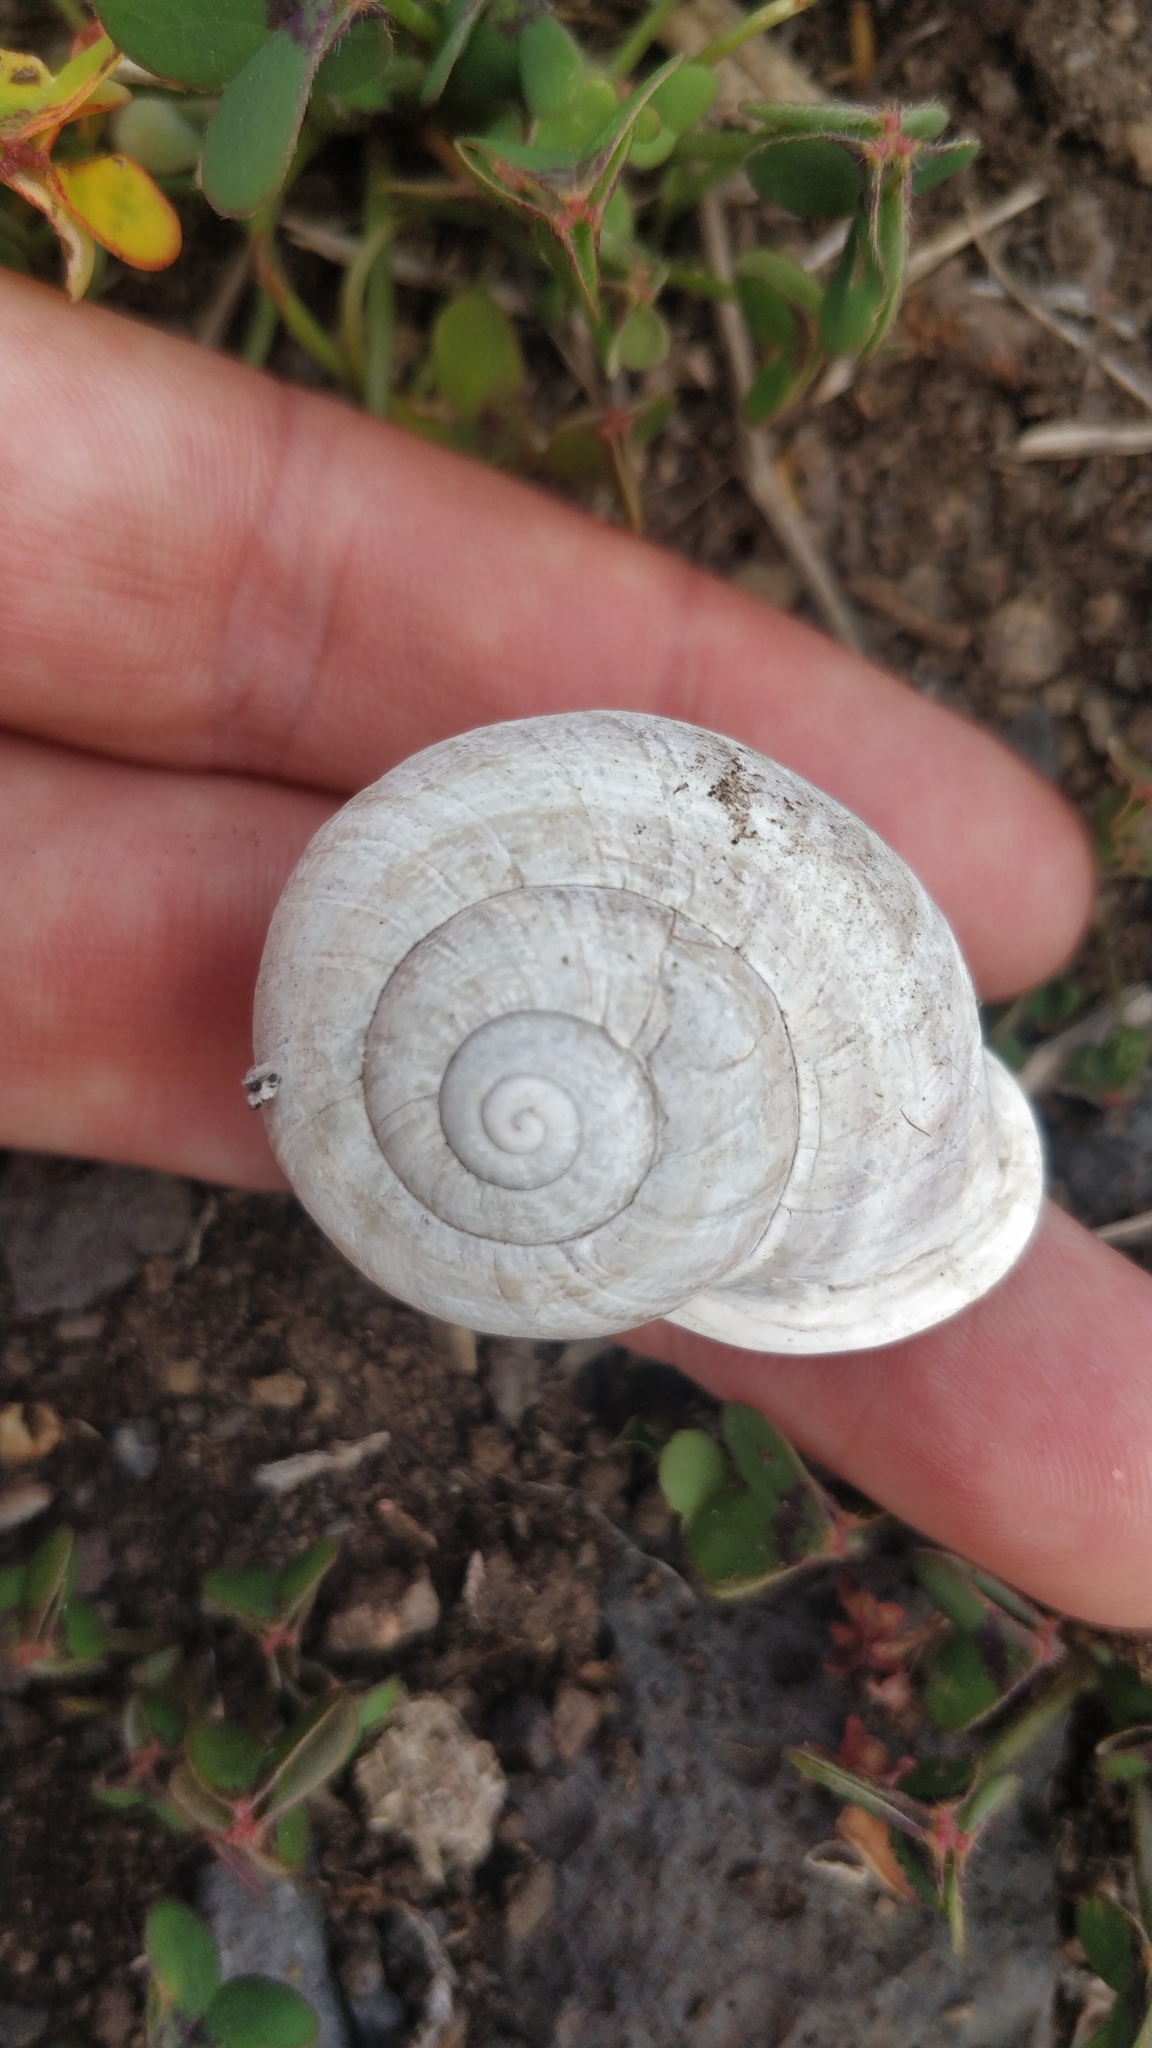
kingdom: Animalia
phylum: Mollusca
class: Gastropoda
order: Stylommatophora
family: Helicidae
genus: Otala
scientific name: Otala lactea
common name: Milk snail
